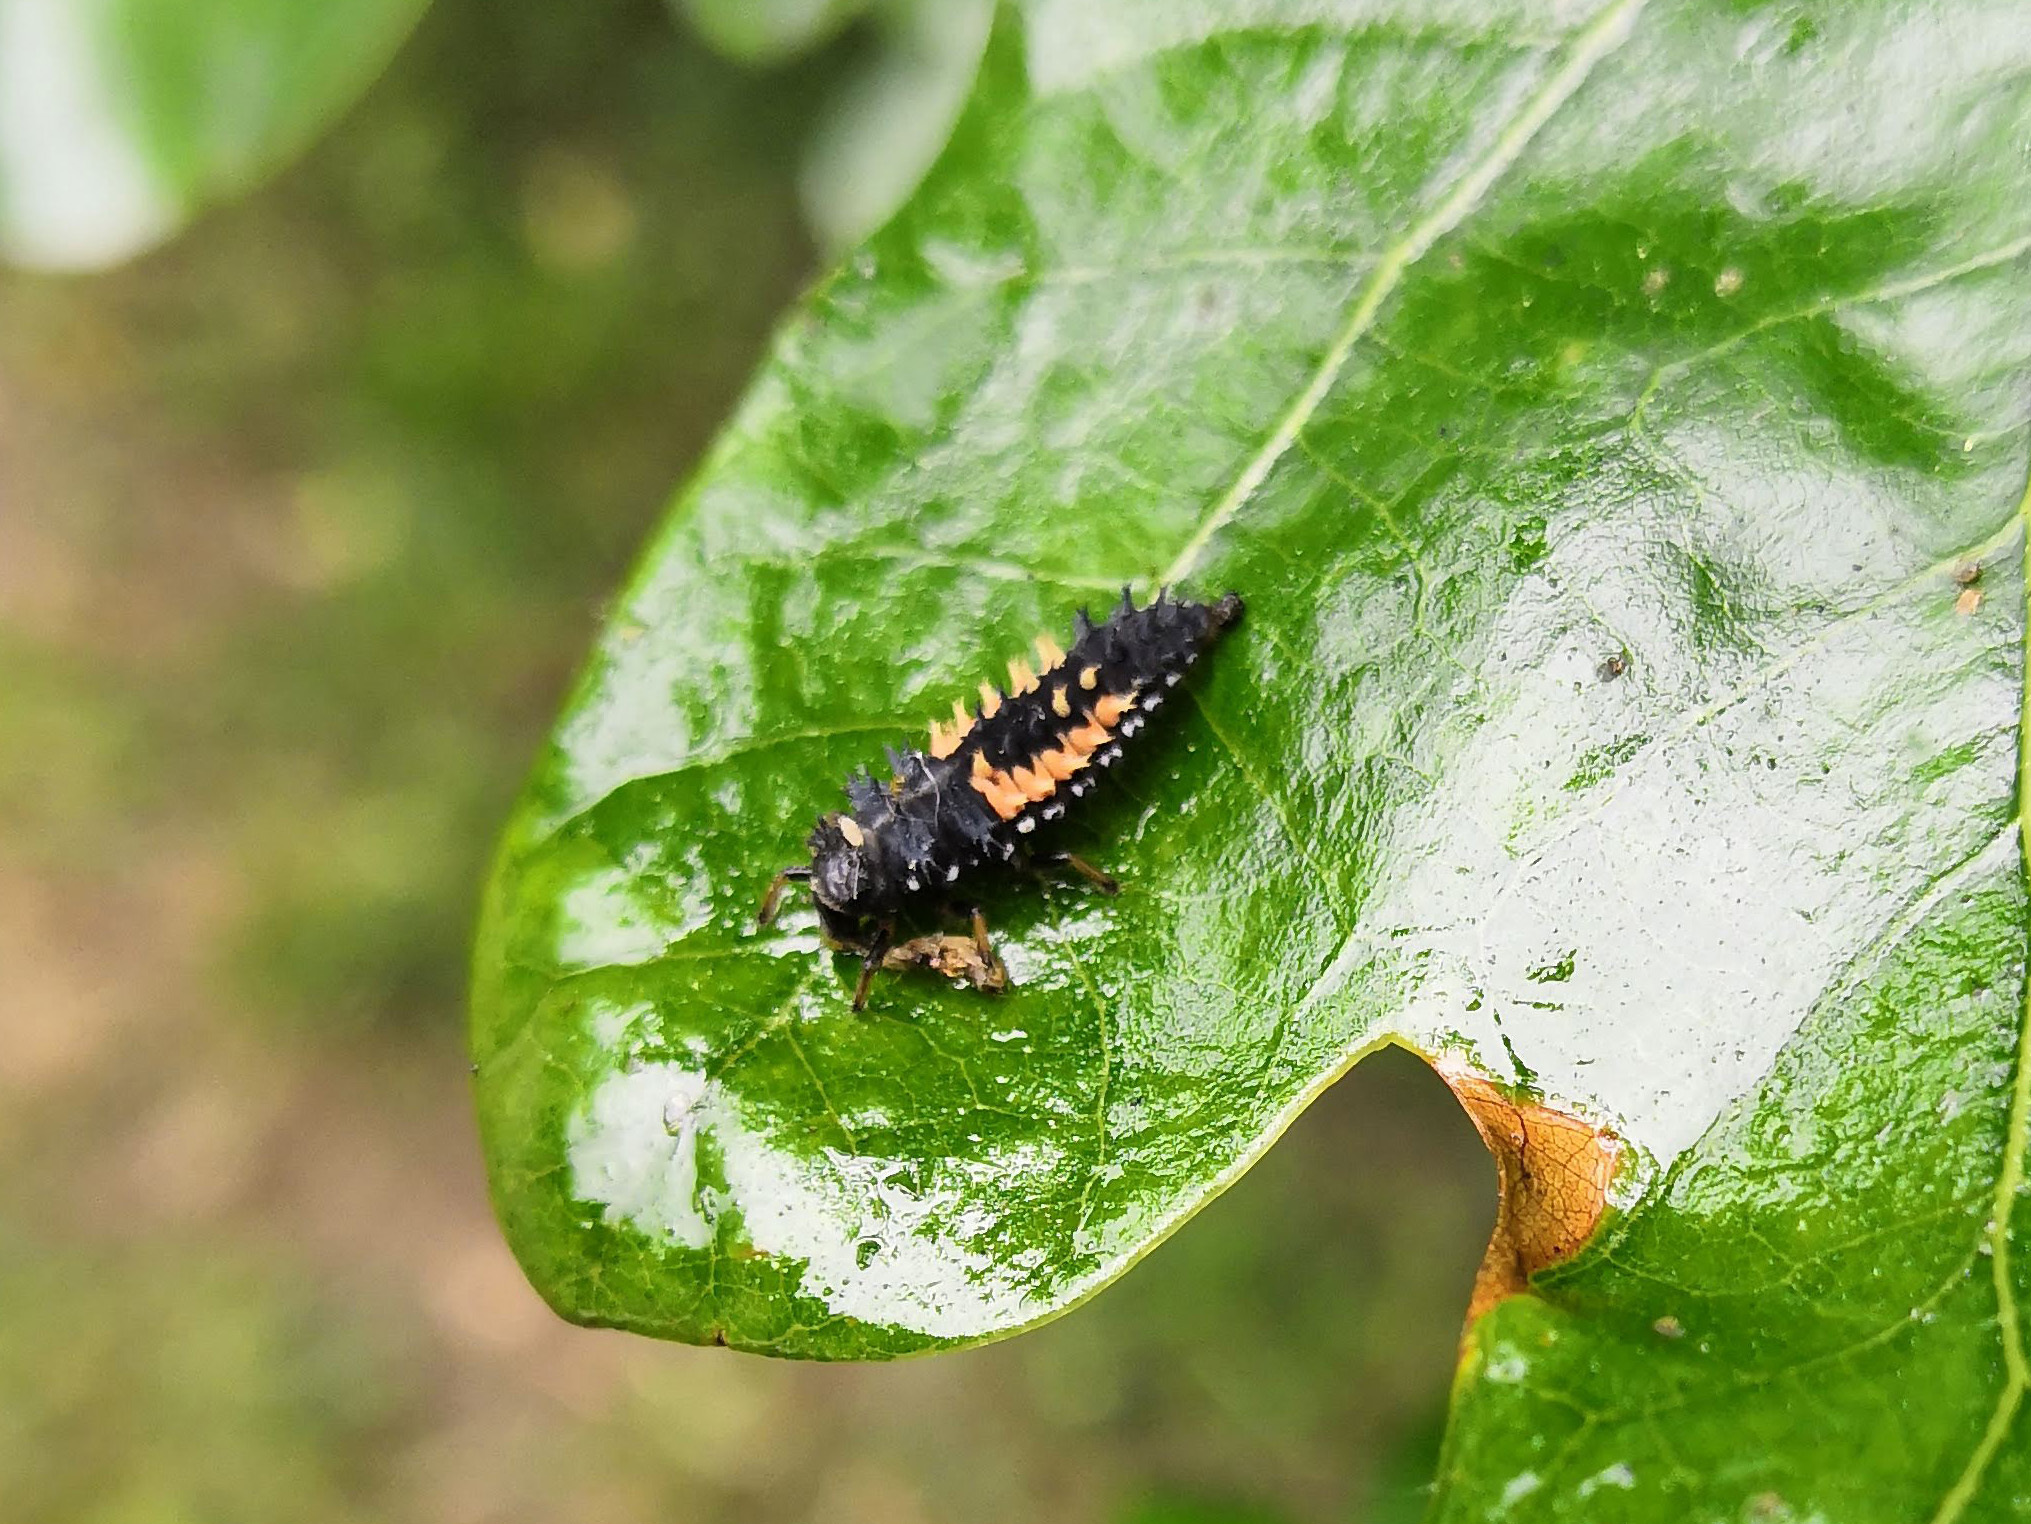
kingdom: Animalia
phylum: Arthropoda
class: Insecta
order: Coleoptera
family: Coccinellidae
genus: Harmonia
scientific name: Harmonia axyridis
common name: Harlequin ladybird
